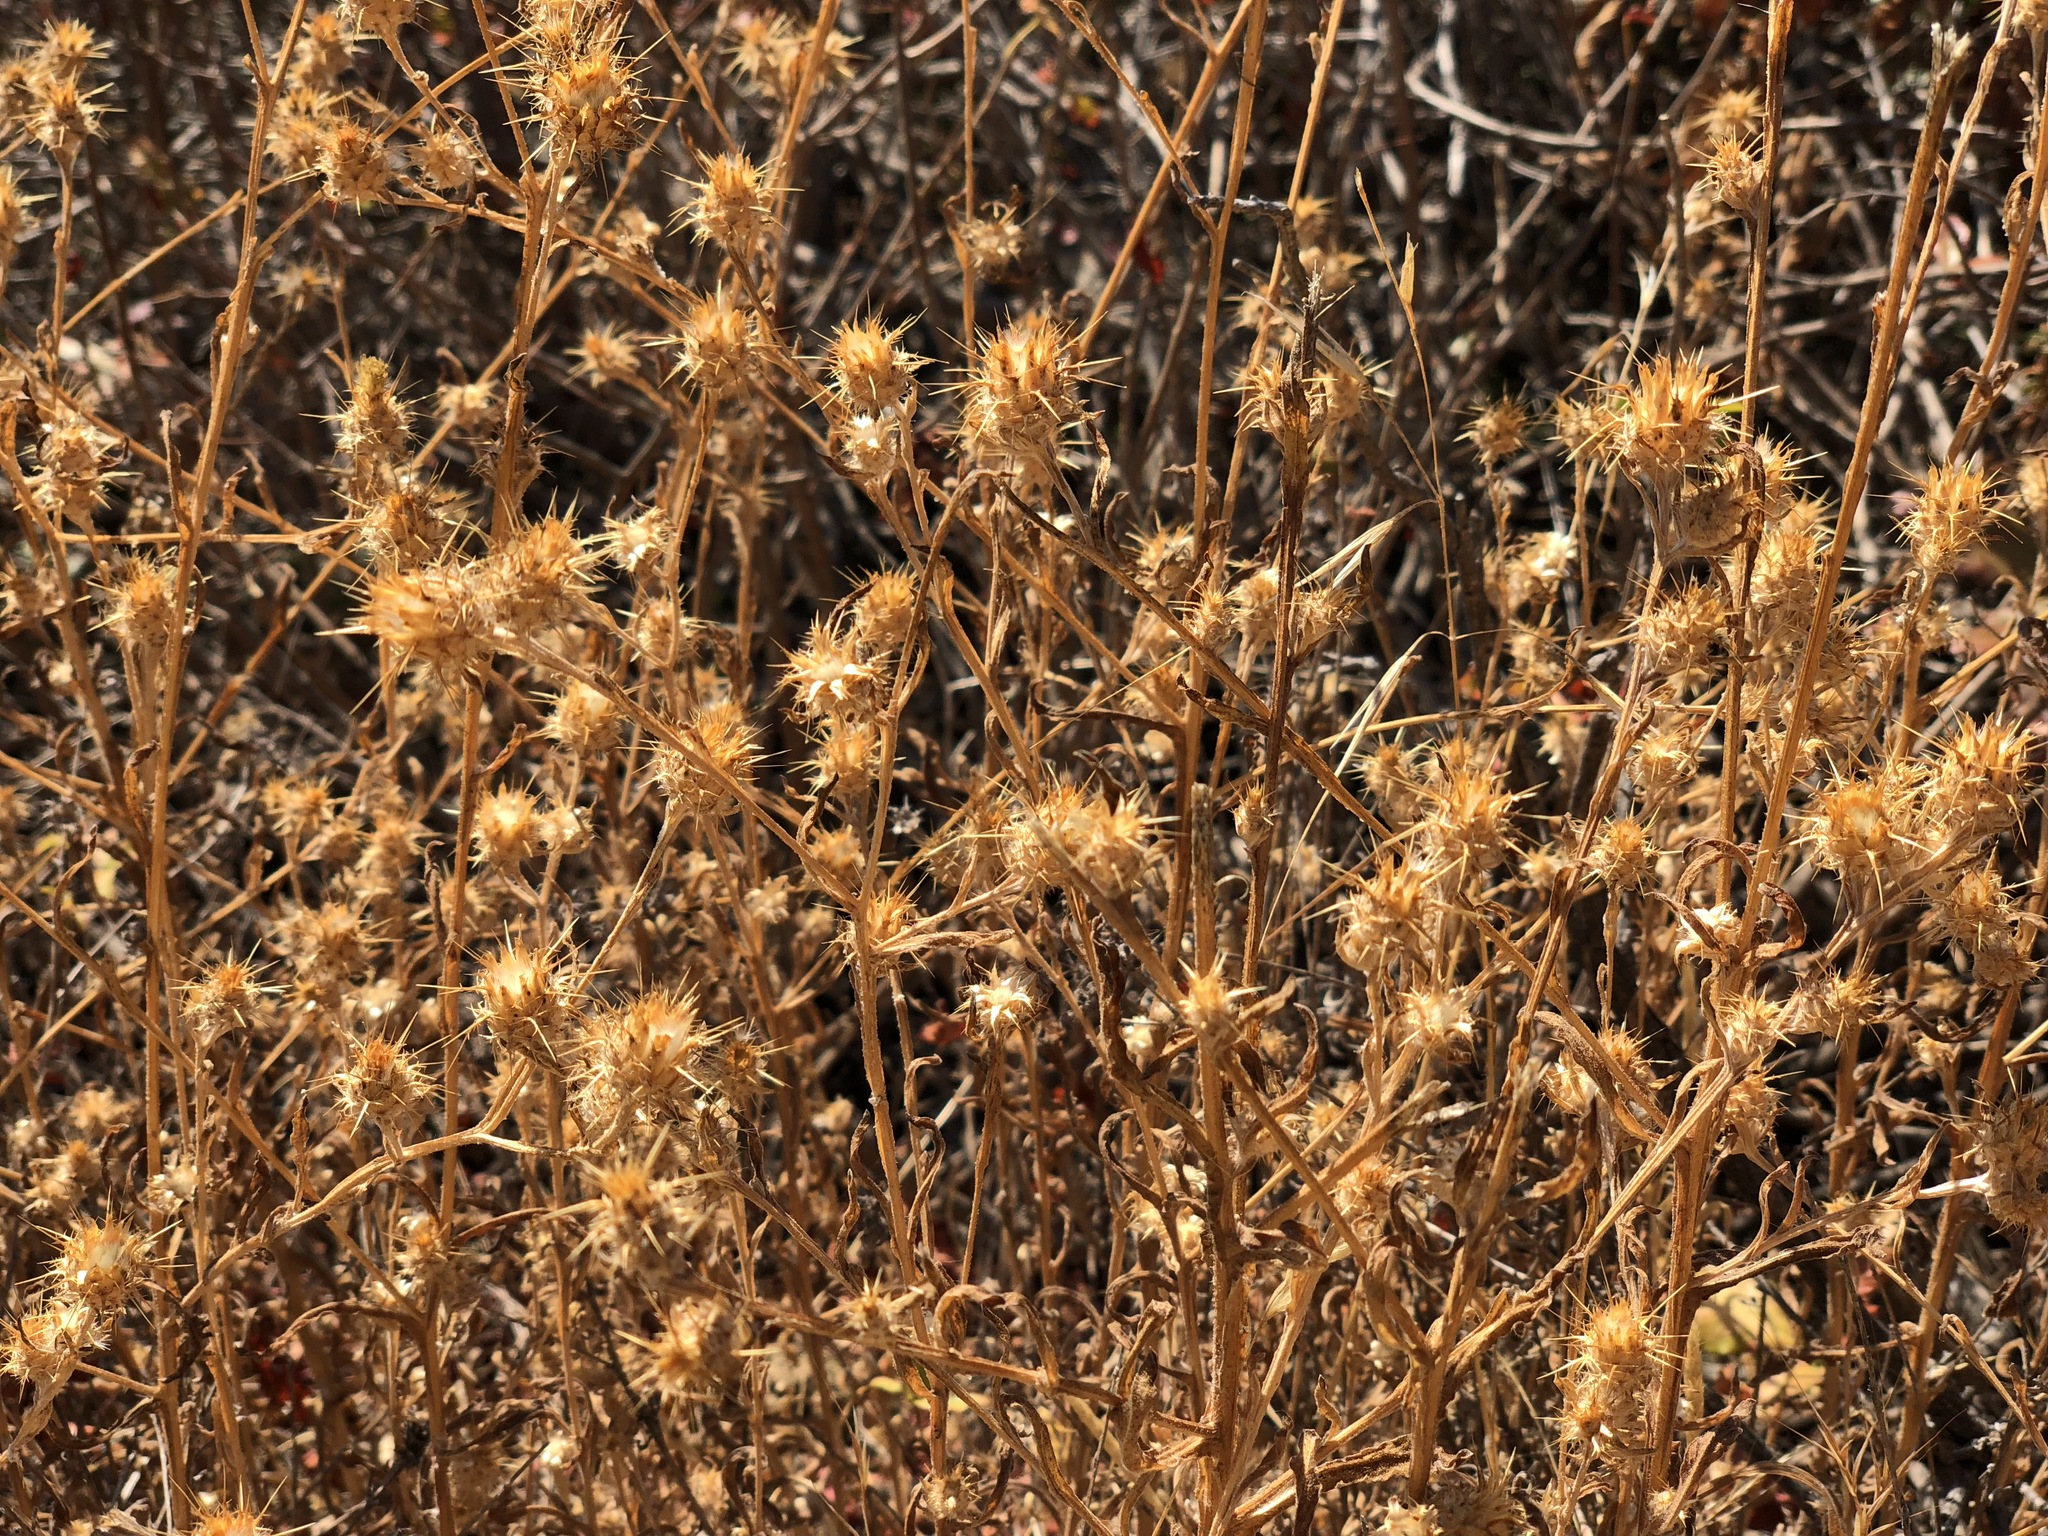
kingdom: Plantae
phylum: Tracheophyta
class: Magnoliopsida
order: Asterales
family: Asteraceae
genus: Centaurea
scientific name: Centaurea melitensis
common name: Maltese star-thistle
